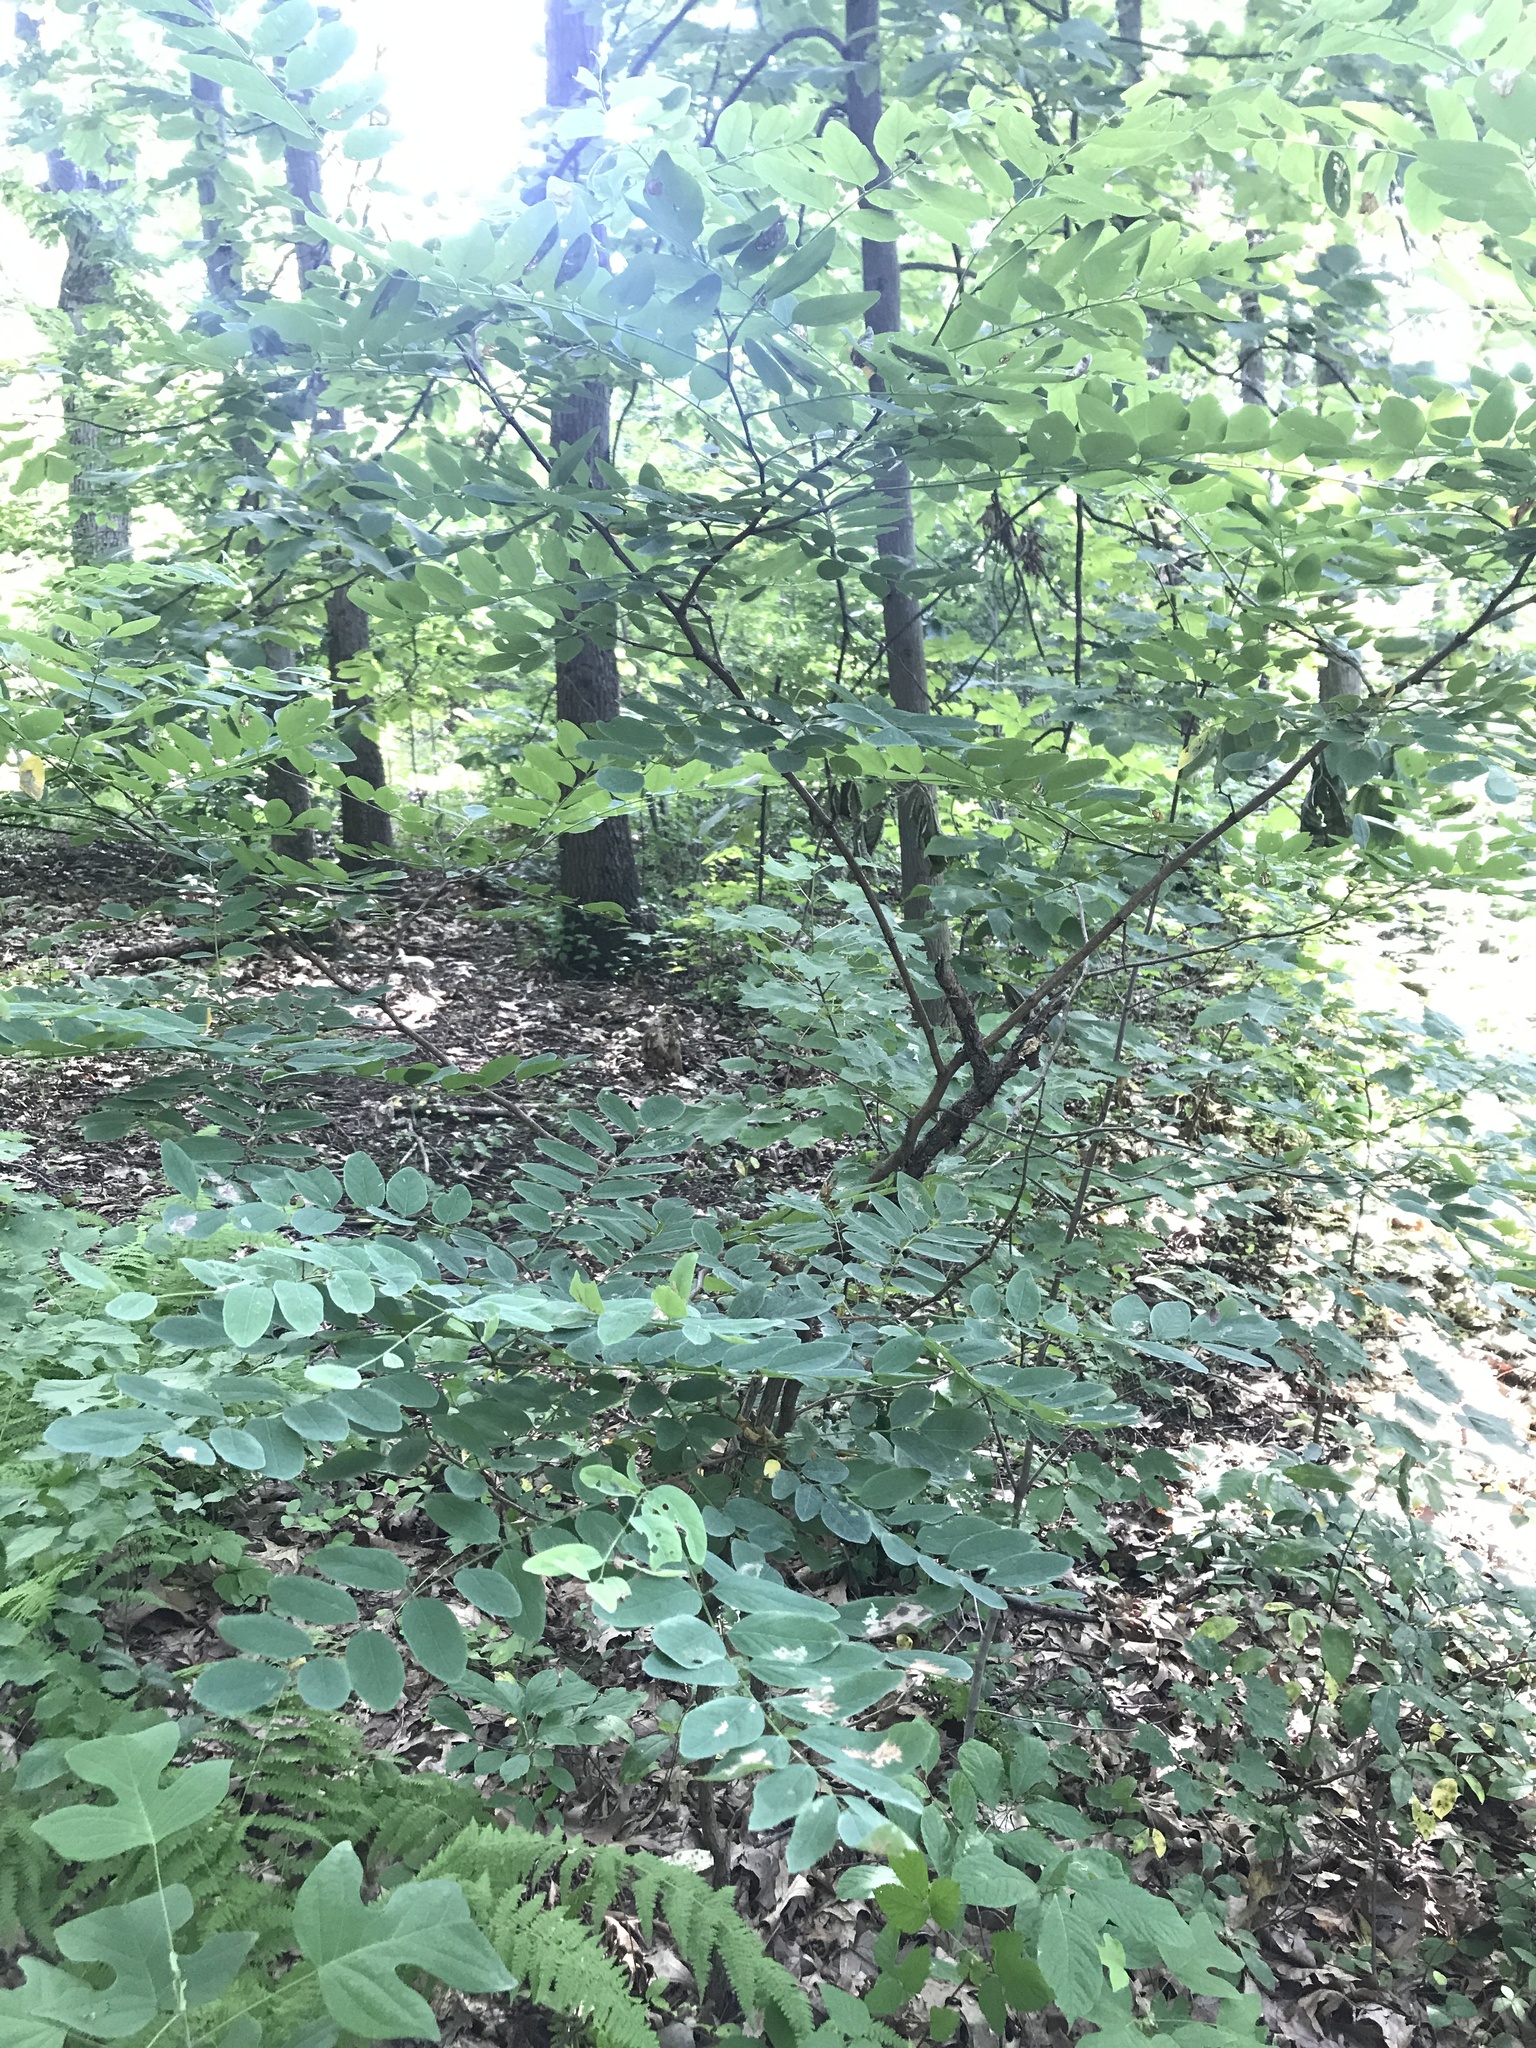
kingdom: Plantae
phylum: Tracheophyta
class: Magnoliopsida
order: Fabales
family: Fabaceae
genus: Robinia
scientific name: Robinia pseudoacacia
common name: Black locust
